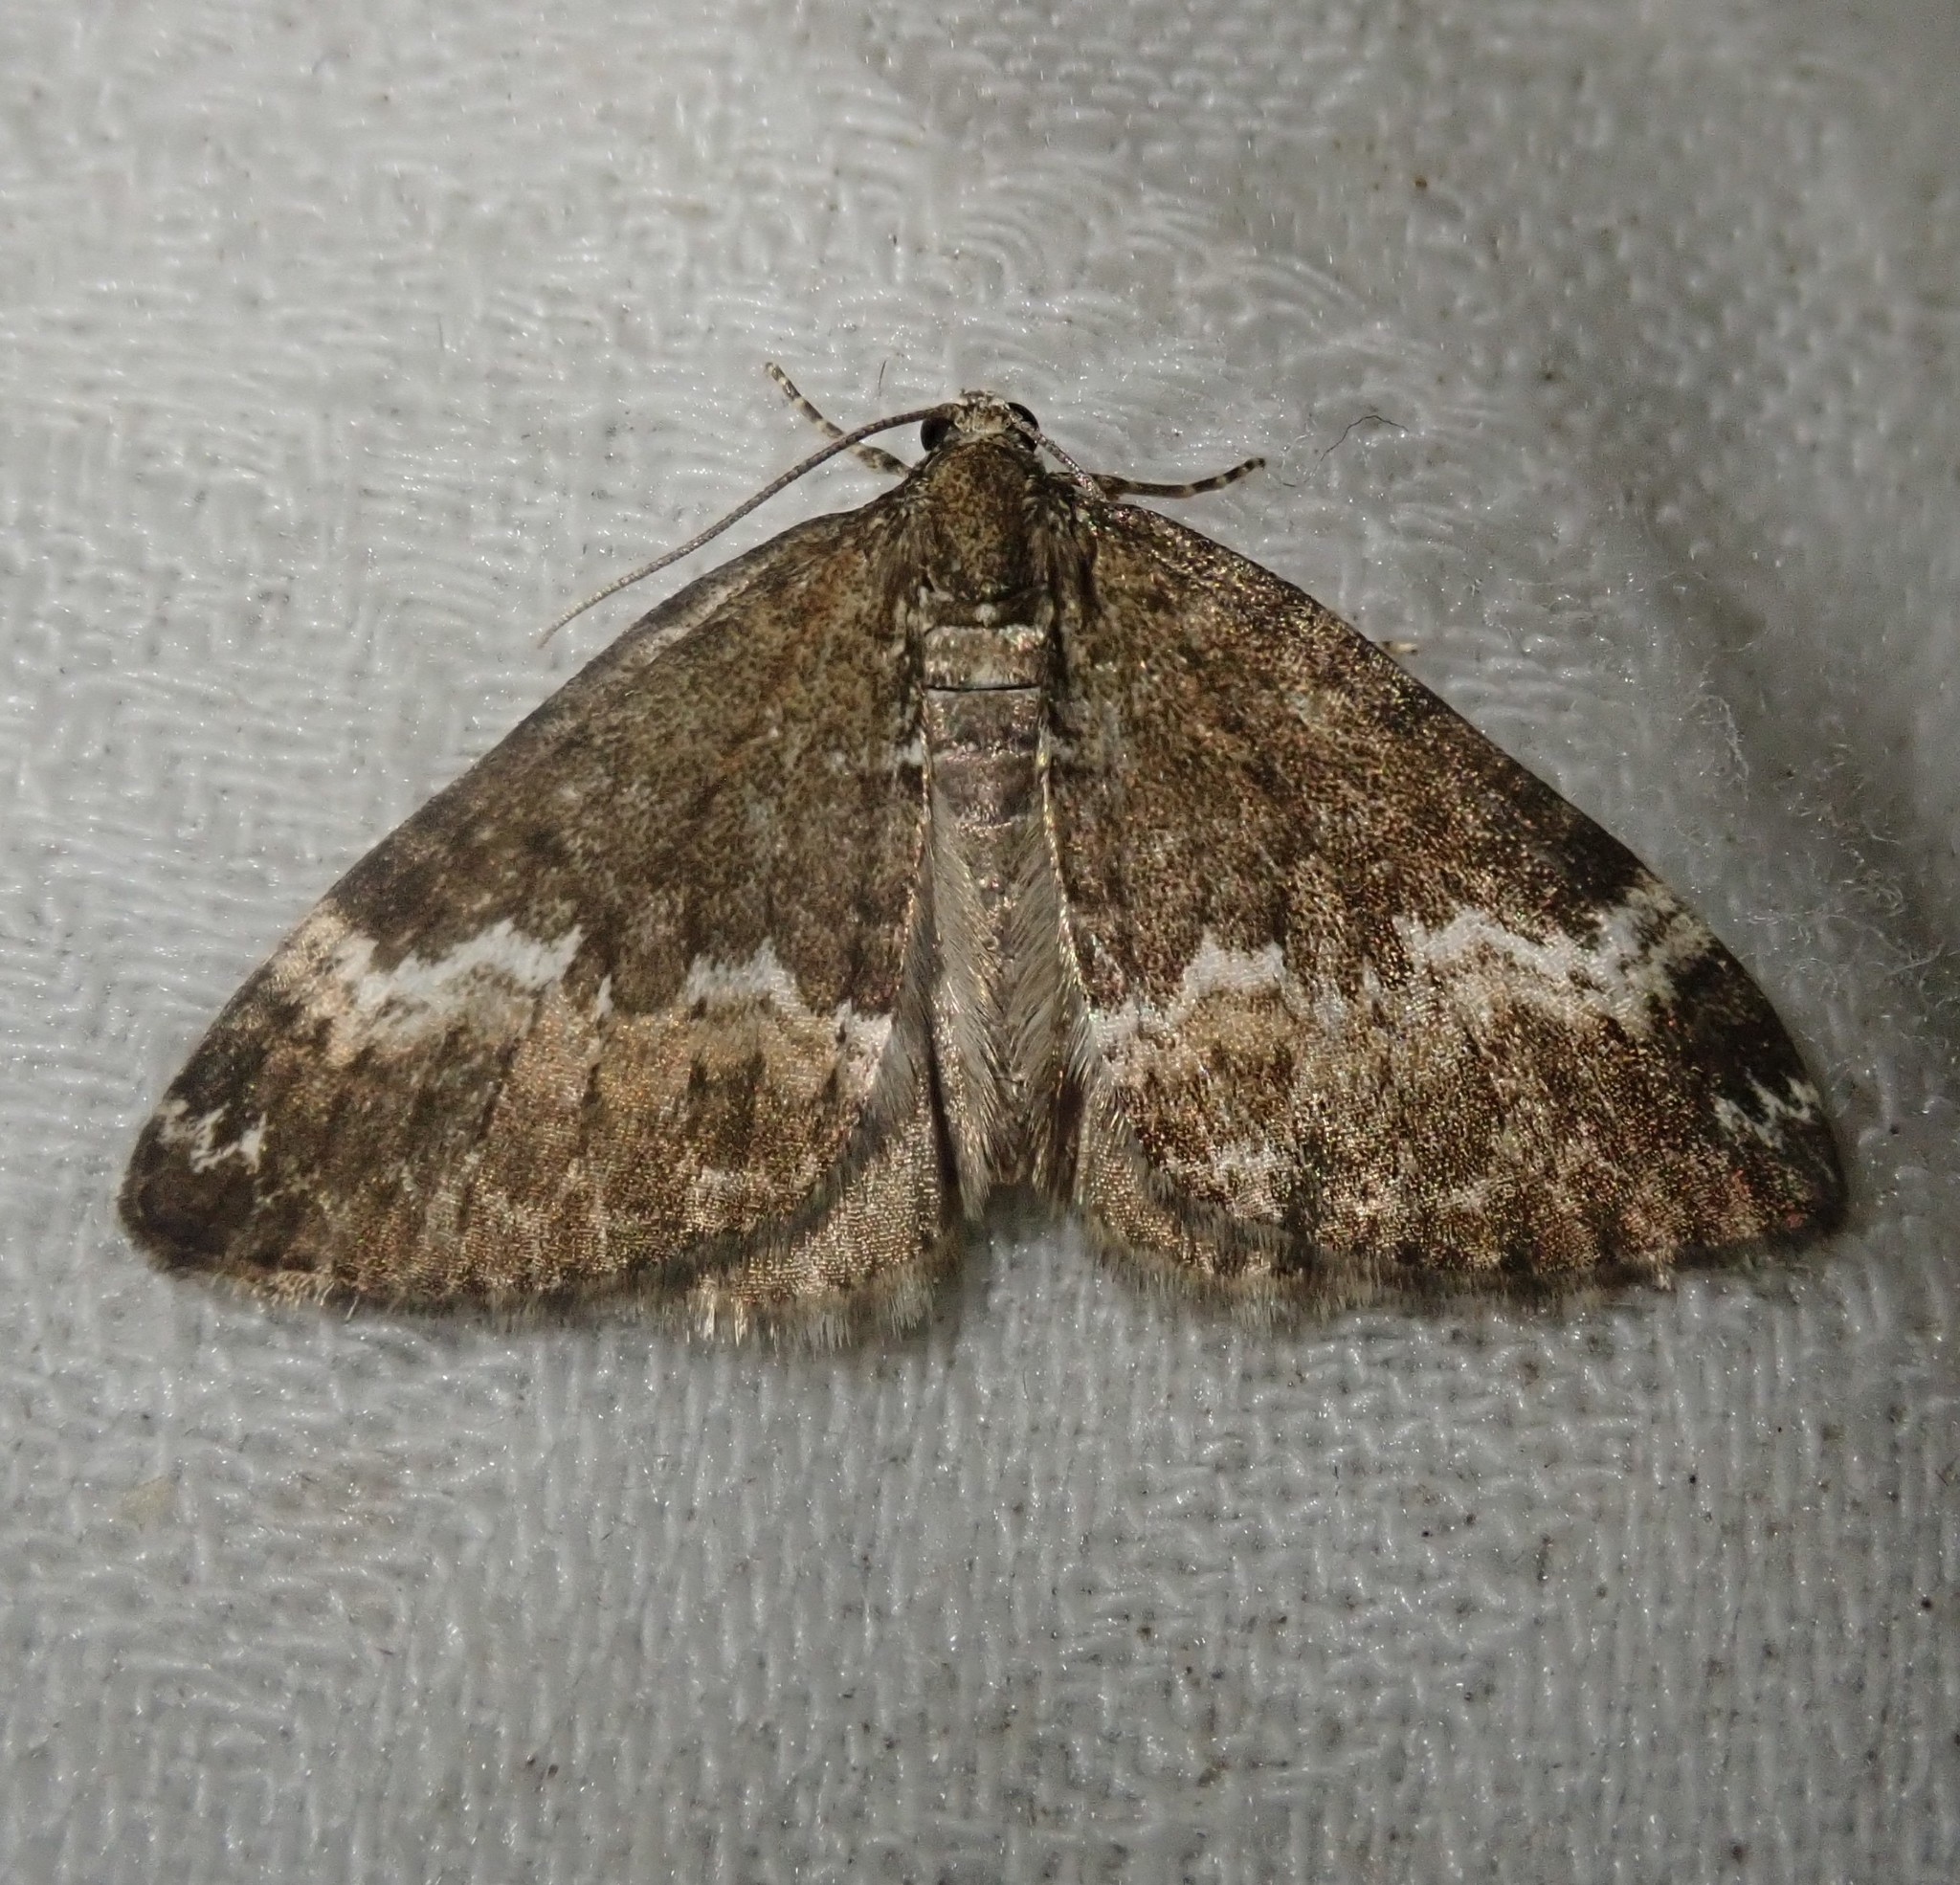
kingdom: Animalia
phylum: Arthropoda
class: Insecta
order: Lepidoptera
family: Geometridae
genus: Perizoma
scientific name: Perizoma alchemillata
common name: Small rivulet
